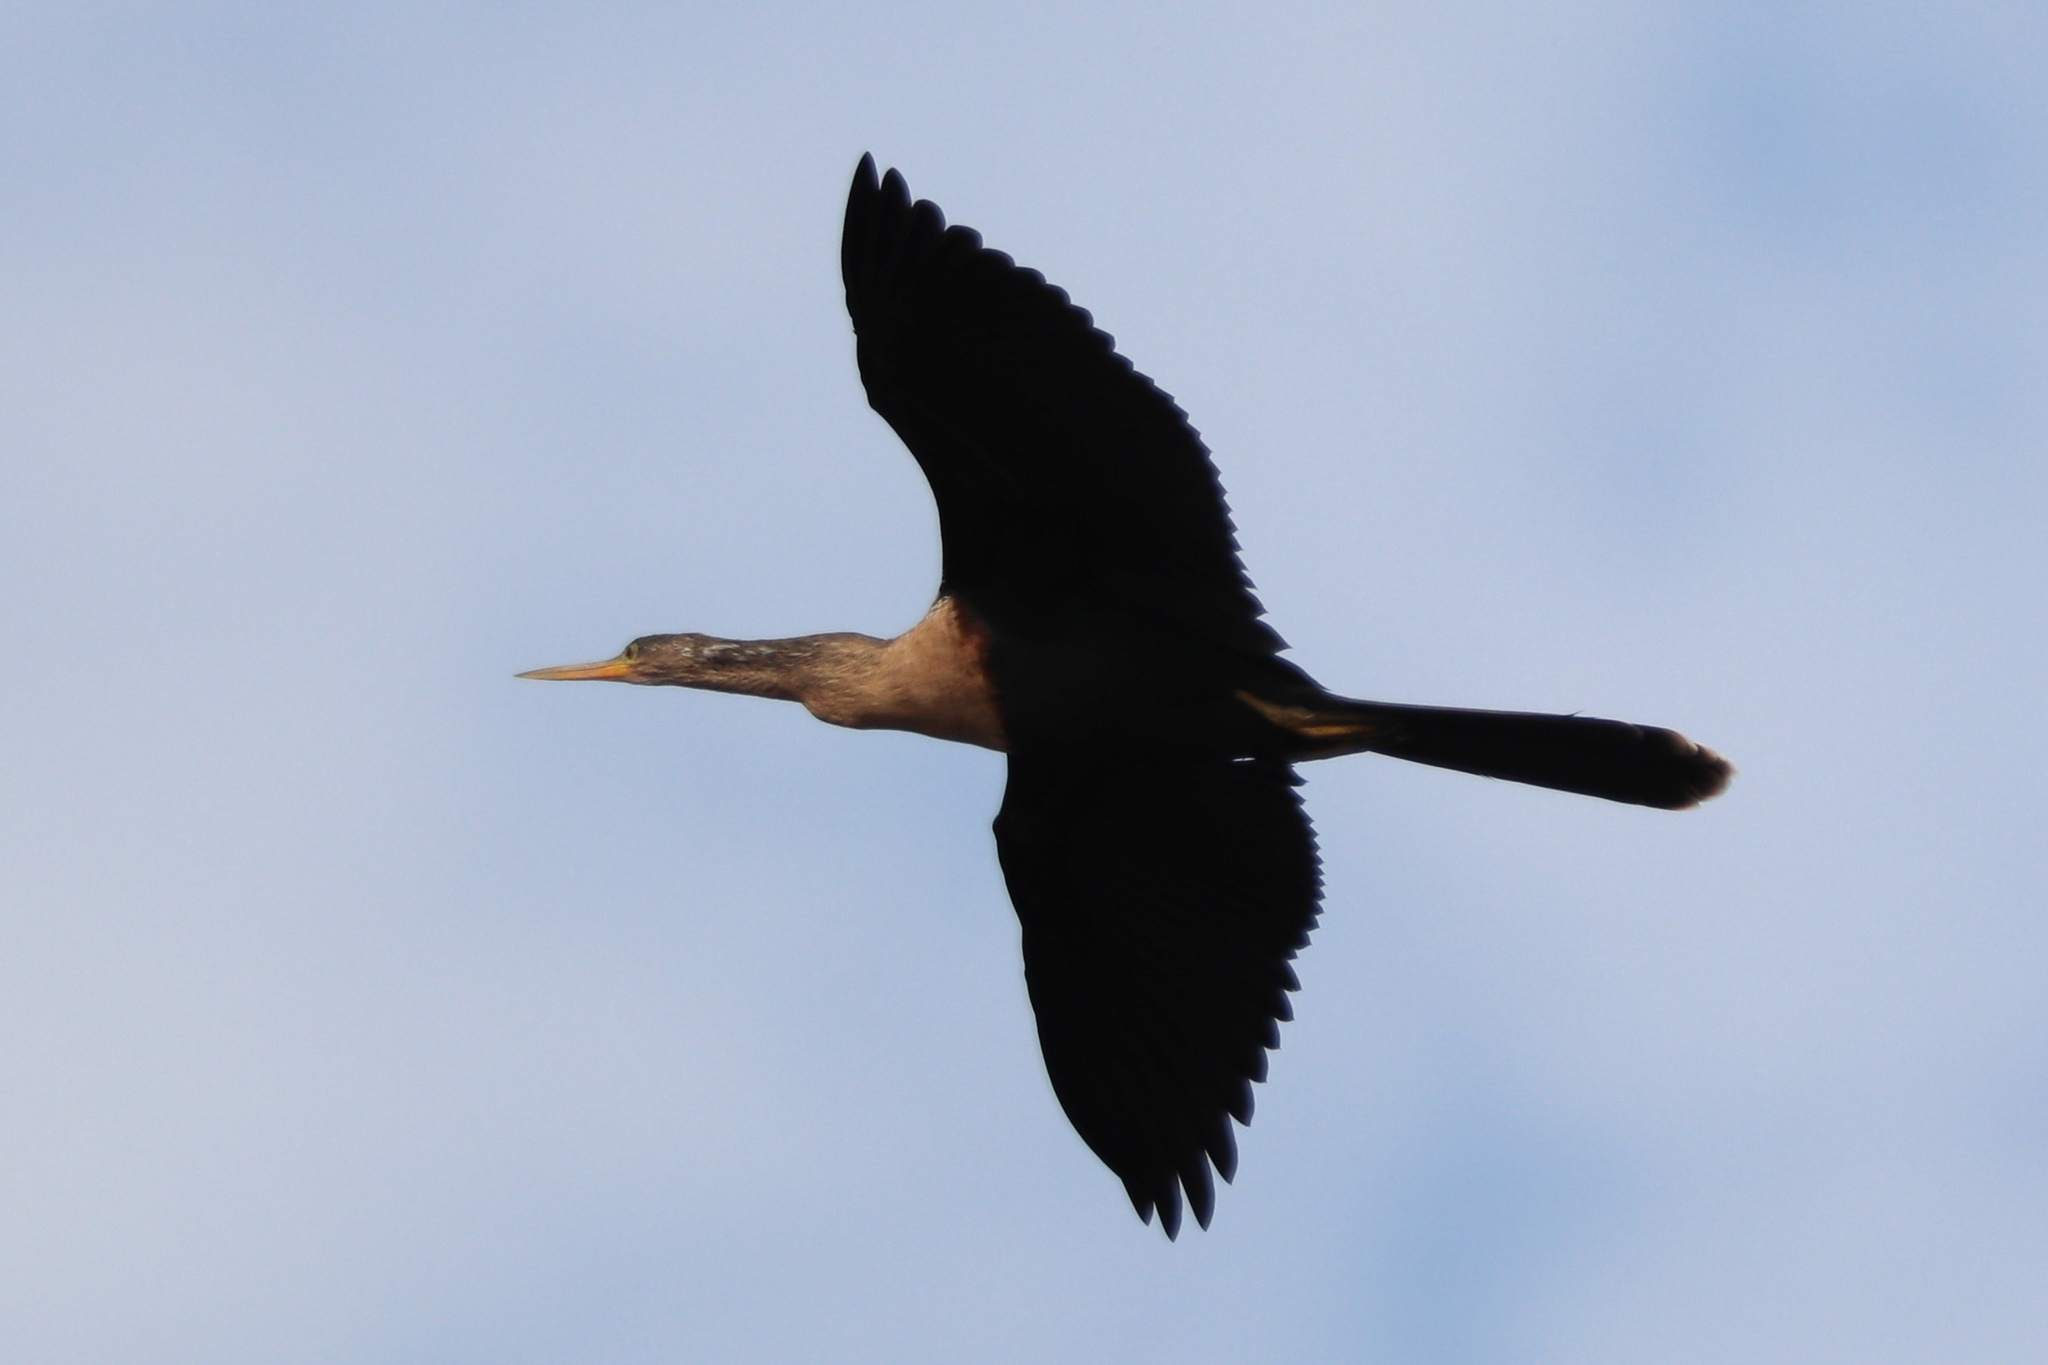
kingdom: Animalia
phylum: Chordata
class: Aves
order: Suliformes
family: Anhingidae
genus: Anhinga
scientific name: Anhinga anhinga
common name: Anhinga
